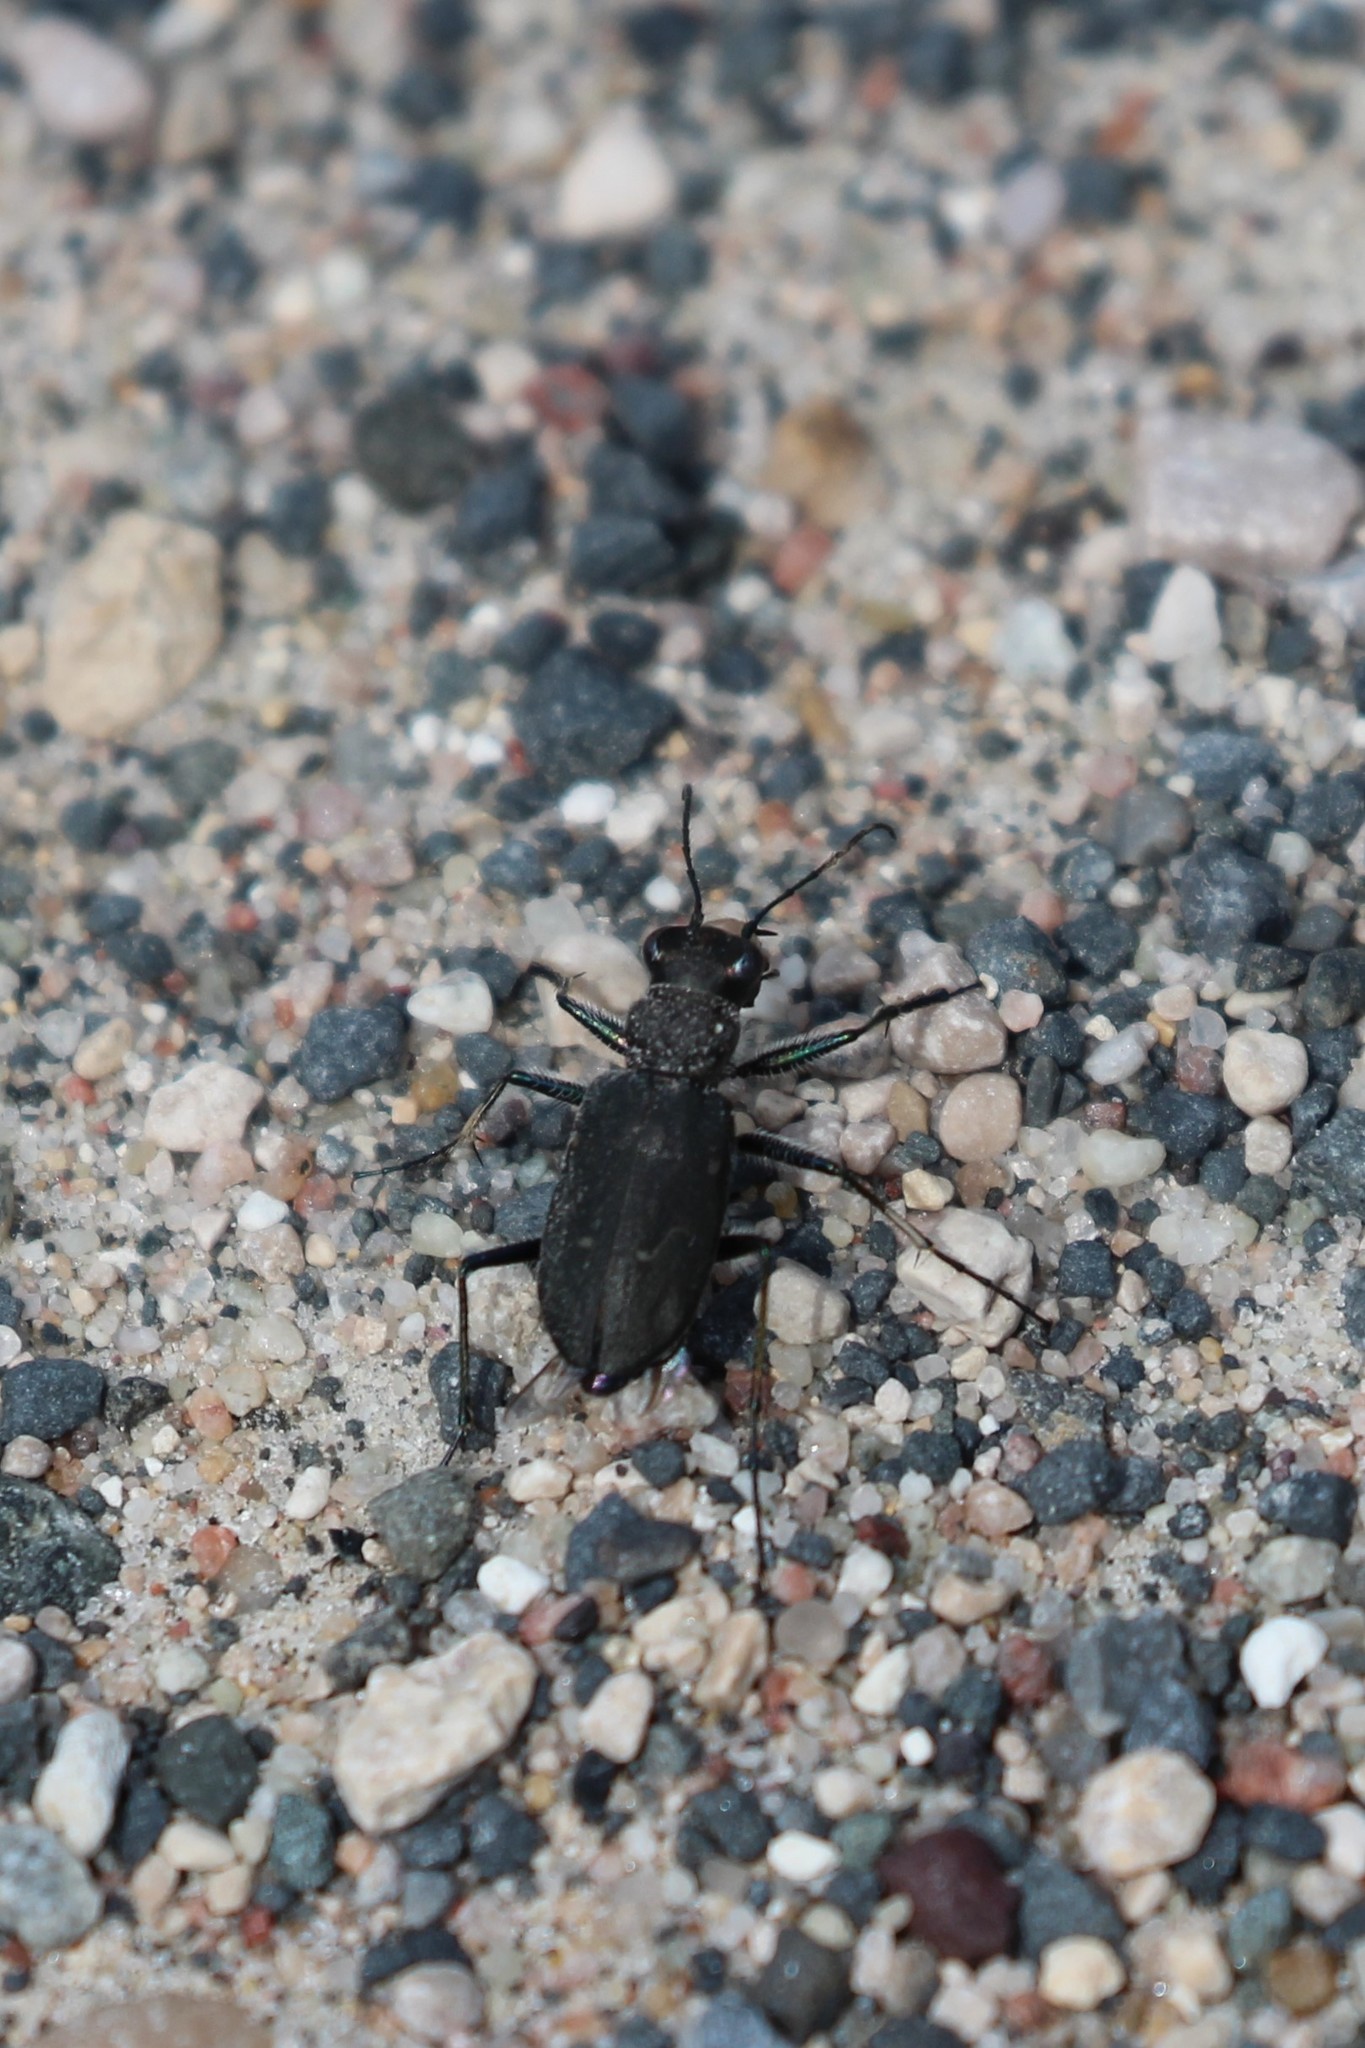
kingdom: Animalia
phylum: Arthropoda
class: Insecta
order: Coleoptera
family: Carabidae
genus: Cicindela
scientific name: Cicindela longilabris
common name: Boreal long-lipped tiger beetle
